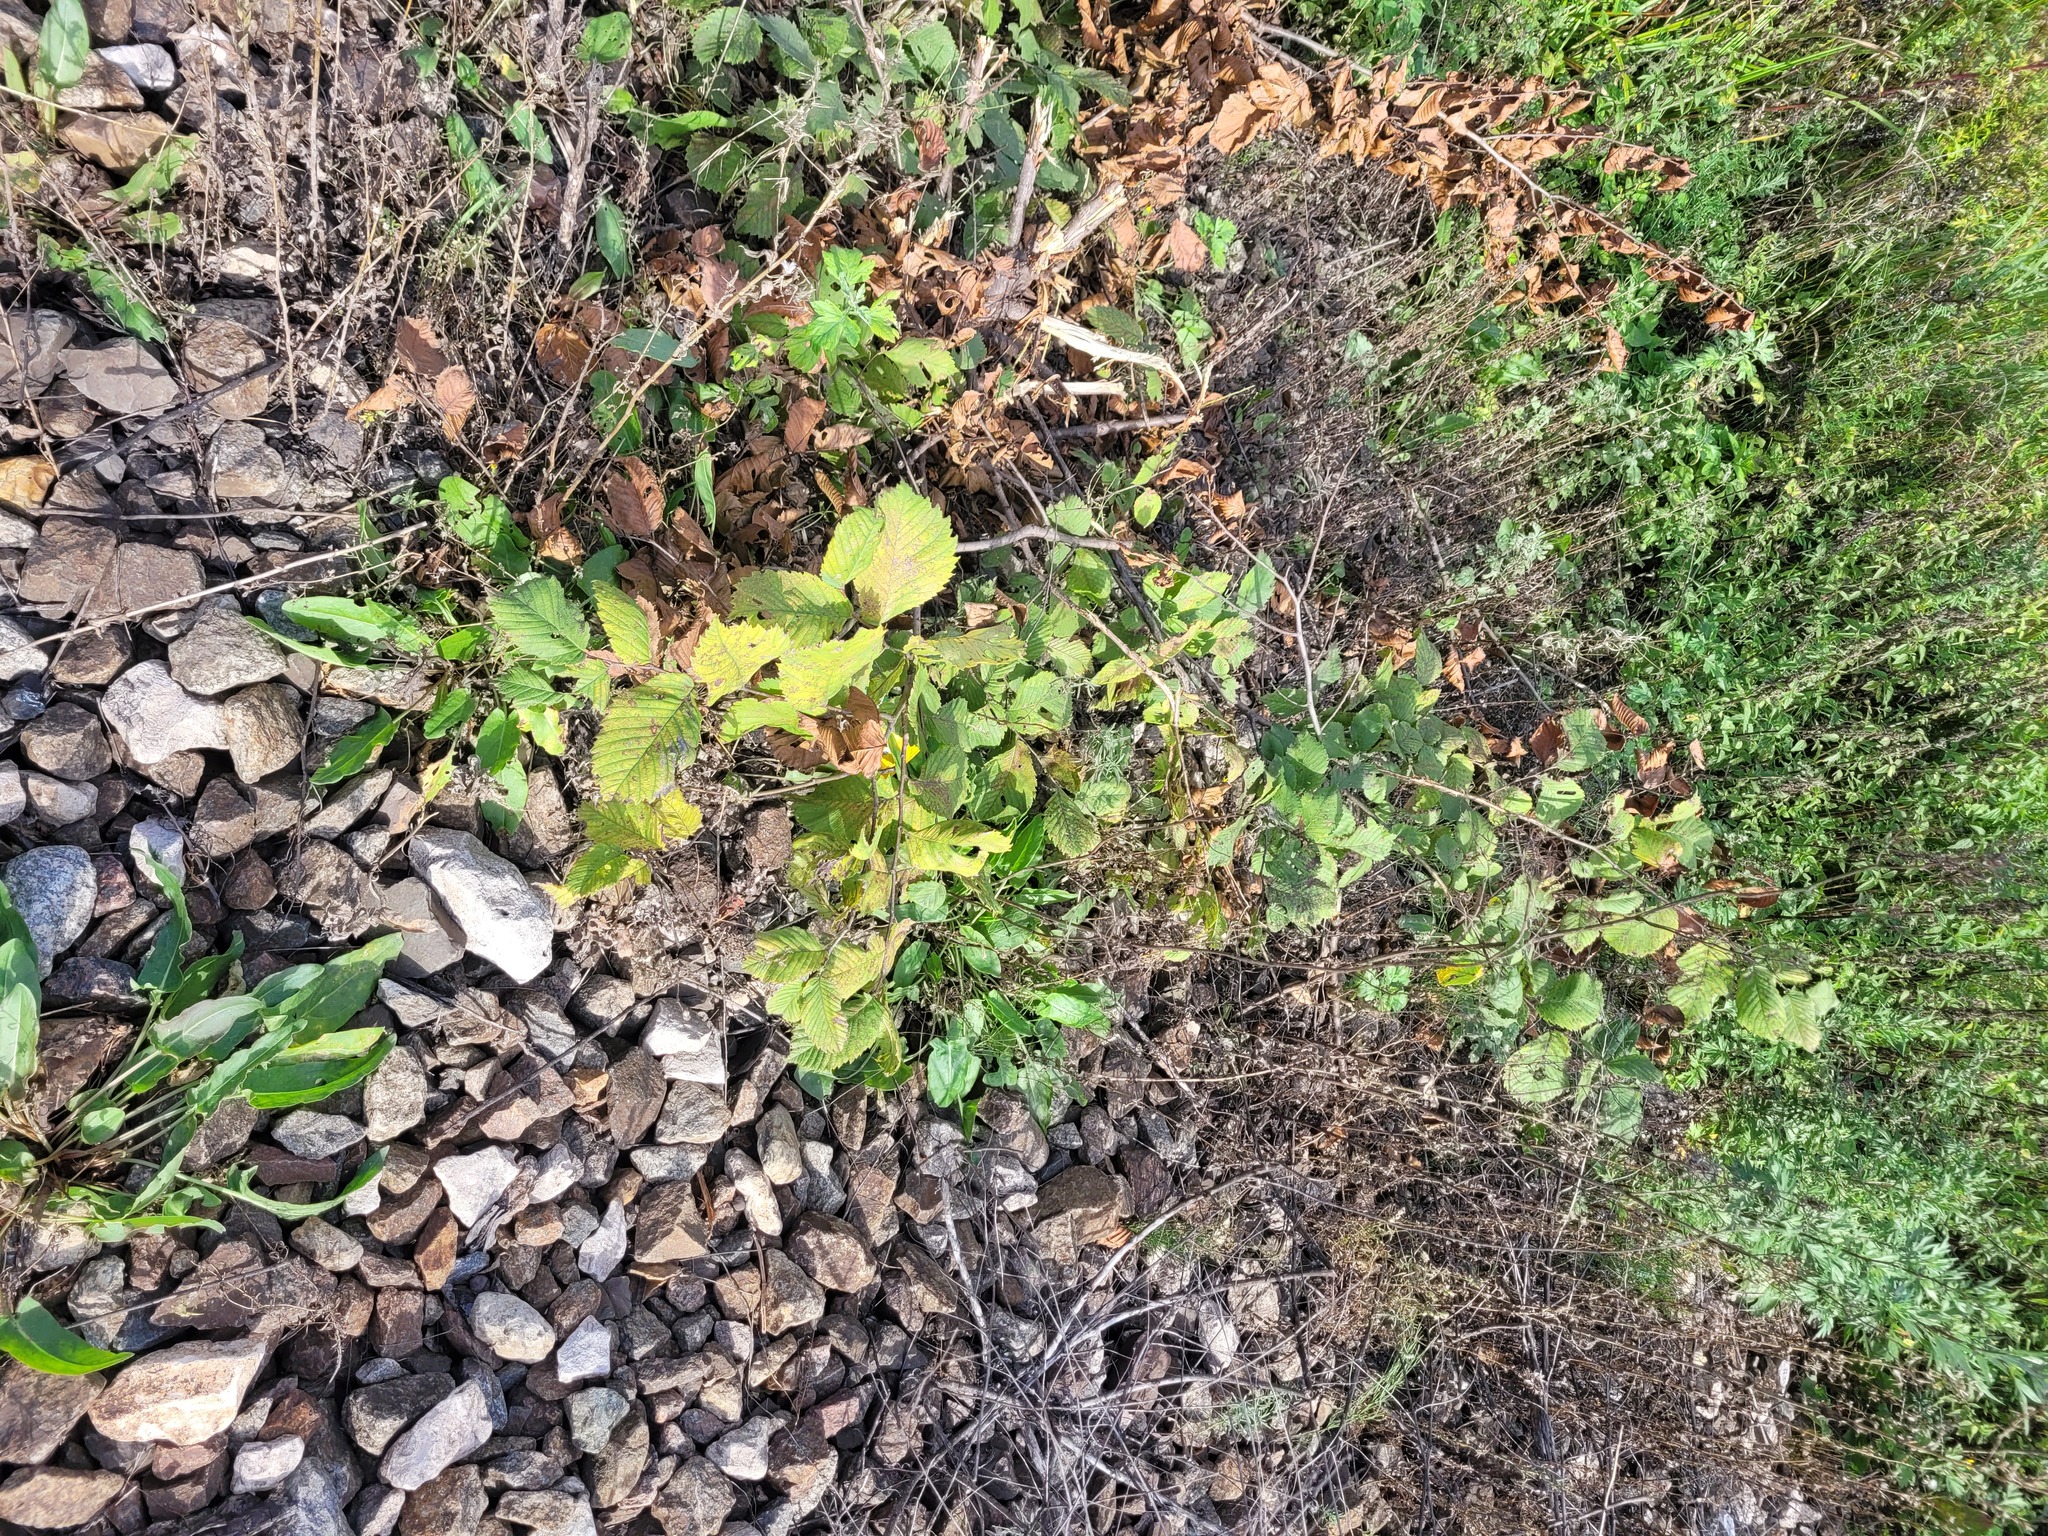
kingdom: Plantae
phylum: Tracheophyta
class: Magnoliopsida
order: Rosales
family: Ulmaceae
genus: Ulmus
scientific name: Ulmus laevis
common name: European white-elm
